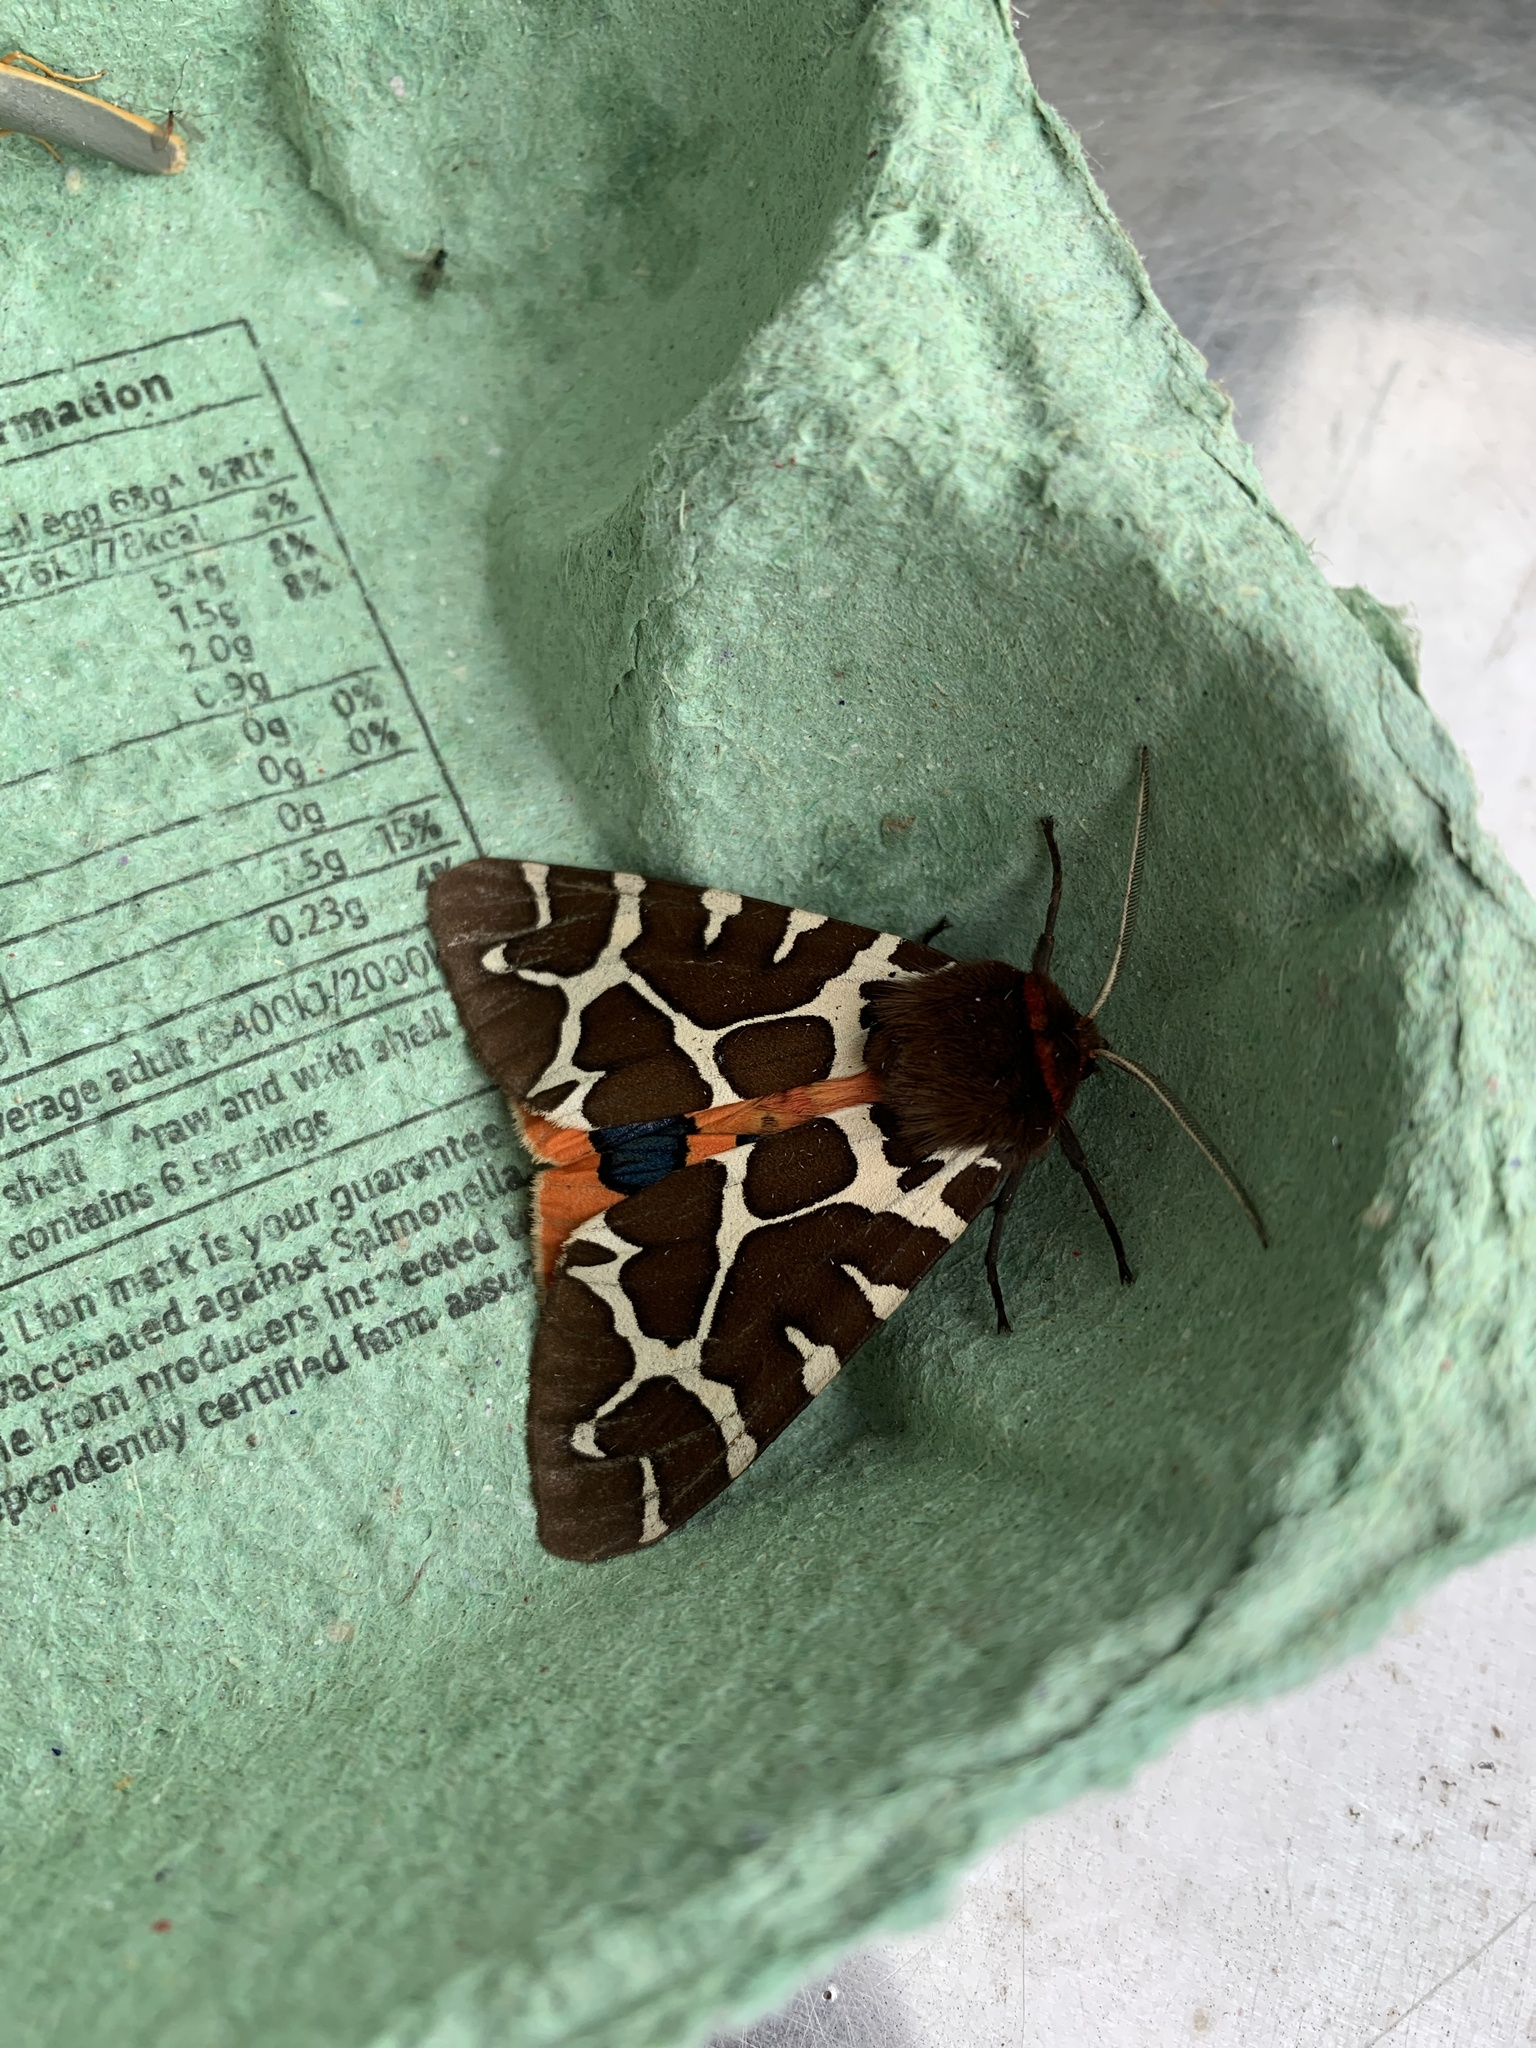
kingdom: Animalia
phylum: Arthropoda
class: Insecta
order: Lepidoptera
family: Erebidae
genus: Arctia
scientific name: Arctia caja
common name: Garden tiger
